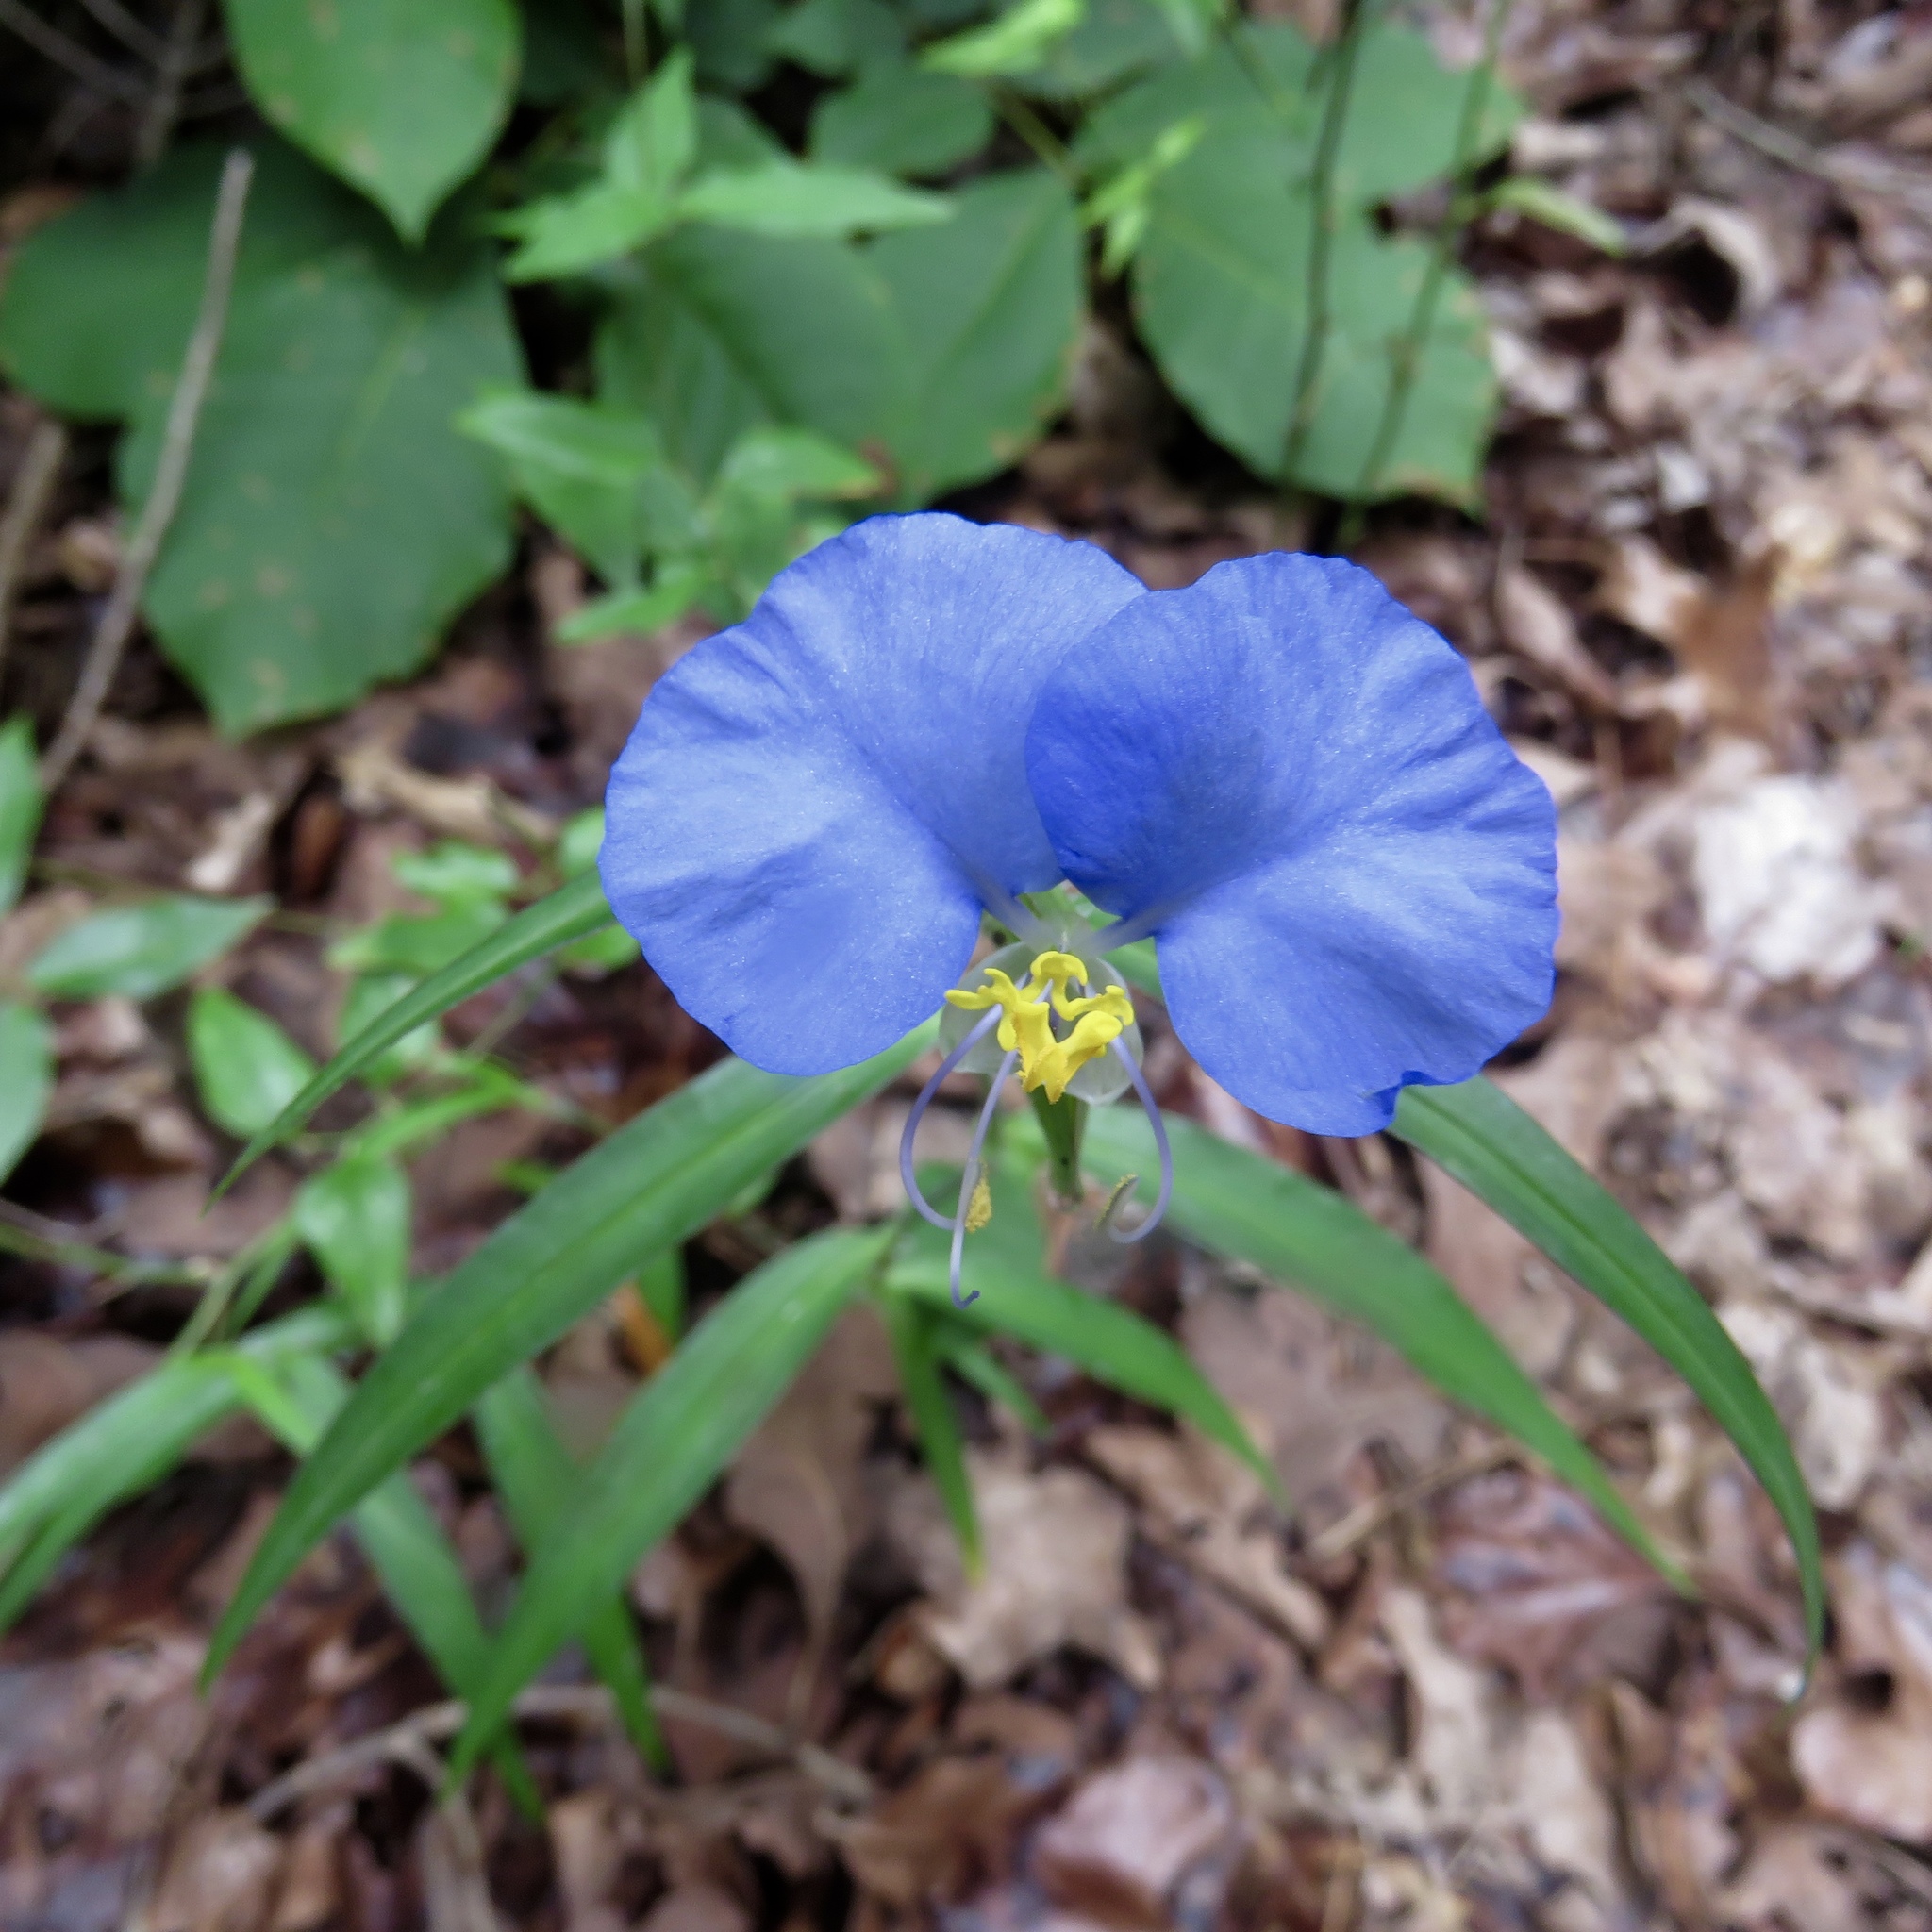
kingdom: Plantae
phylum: Tracheophyta
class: Liliopsida
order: Commelinales
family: Commelinaceae
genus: Commelina
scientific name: Commelina erecta
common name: Blousel blommetjie
